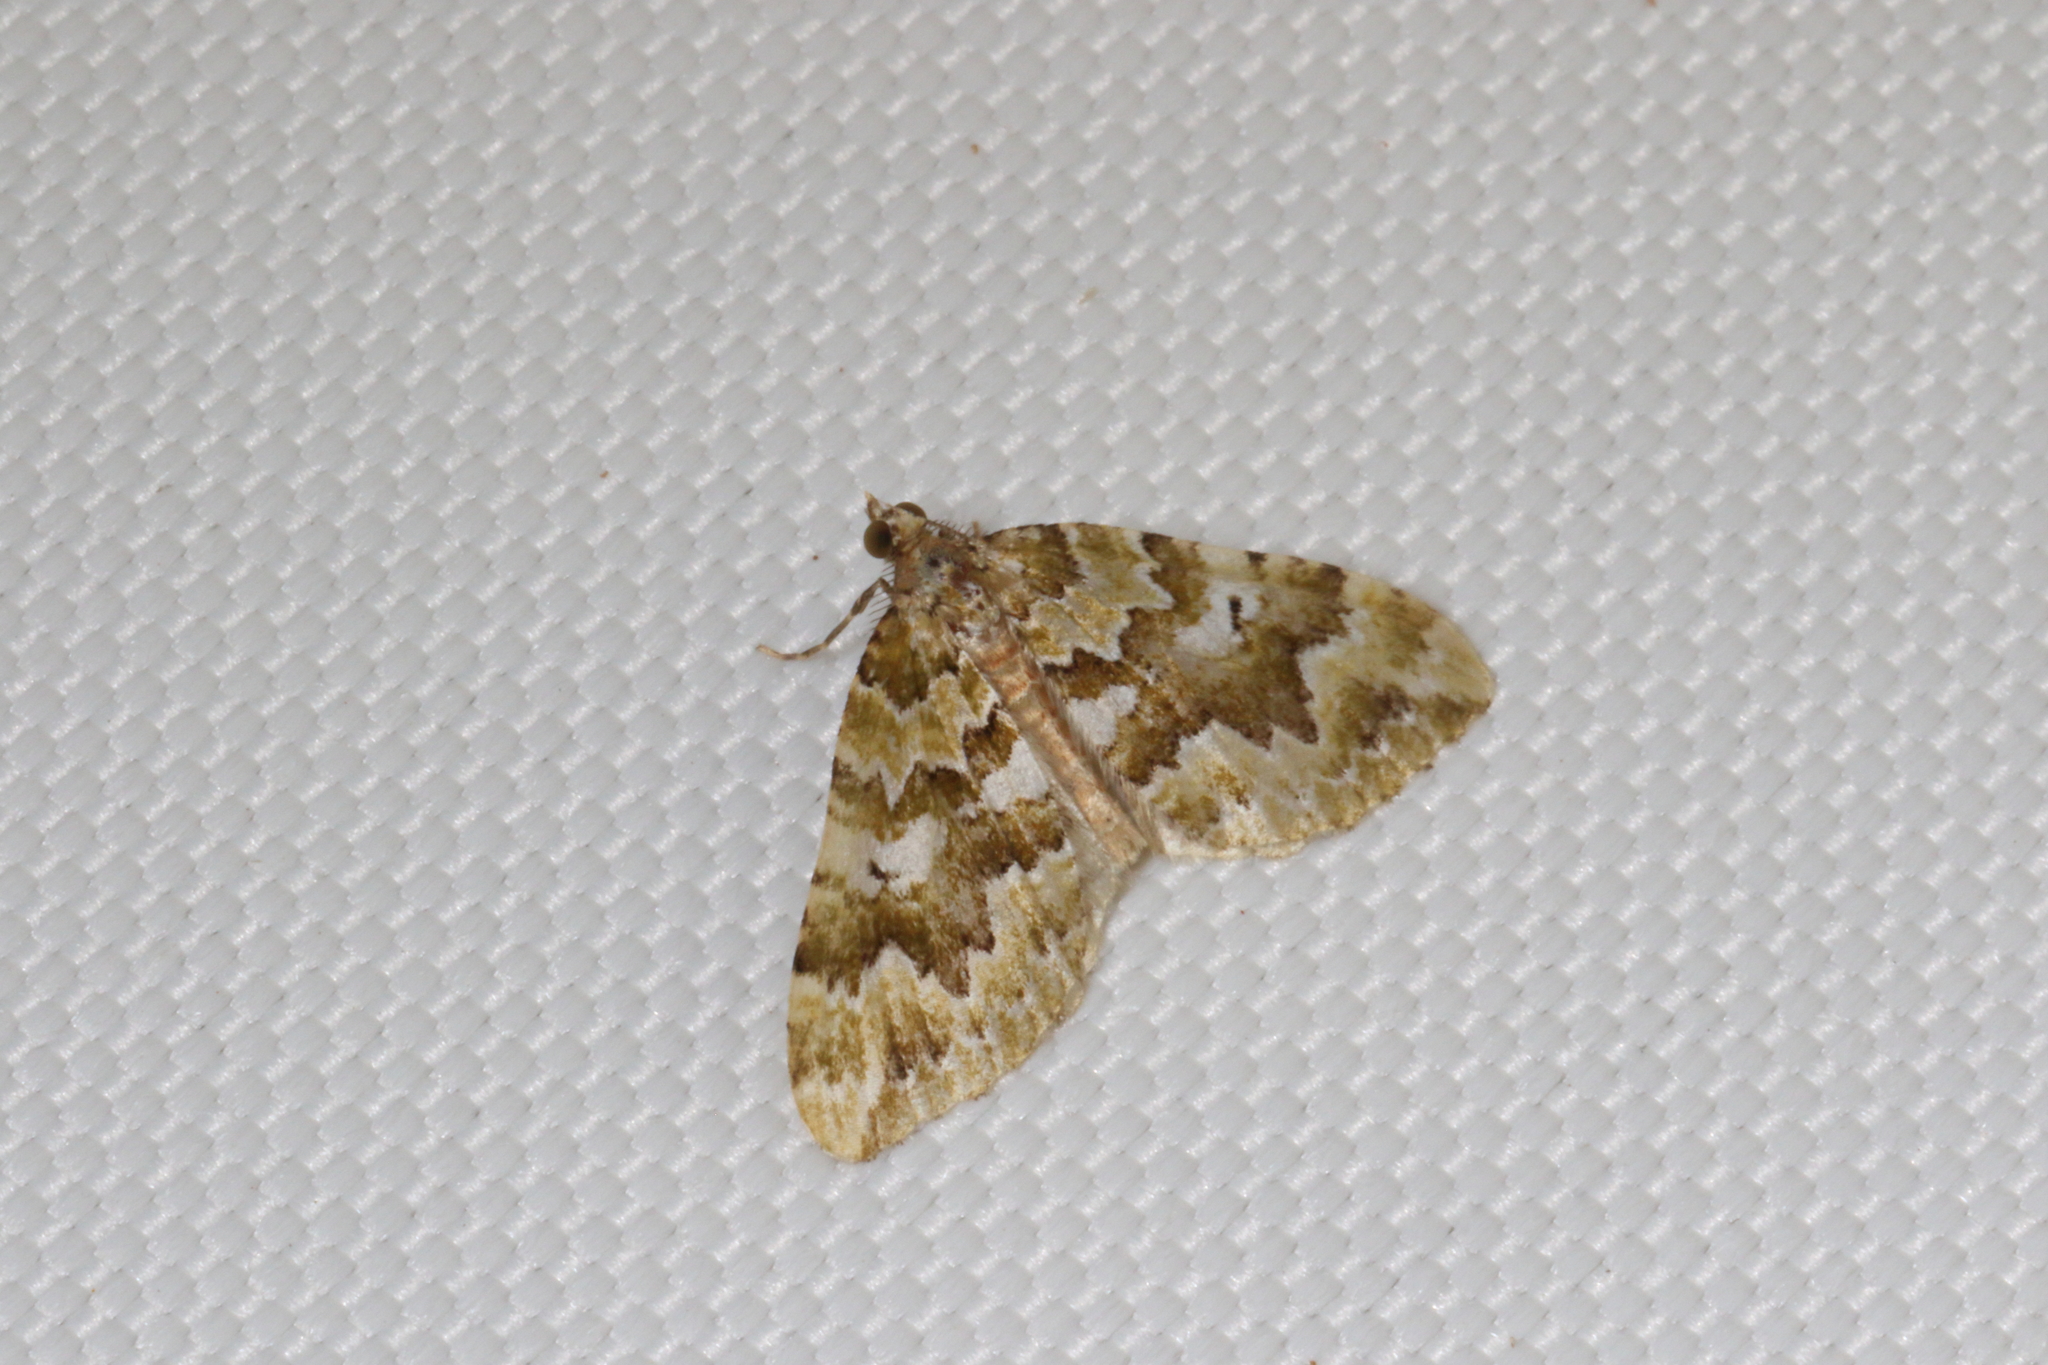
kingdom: Animalia
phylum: Arthropoda
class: Insecta
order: Lepidoptera
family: Geometridae
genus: Asaphodes
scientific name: Asaphodes beata
